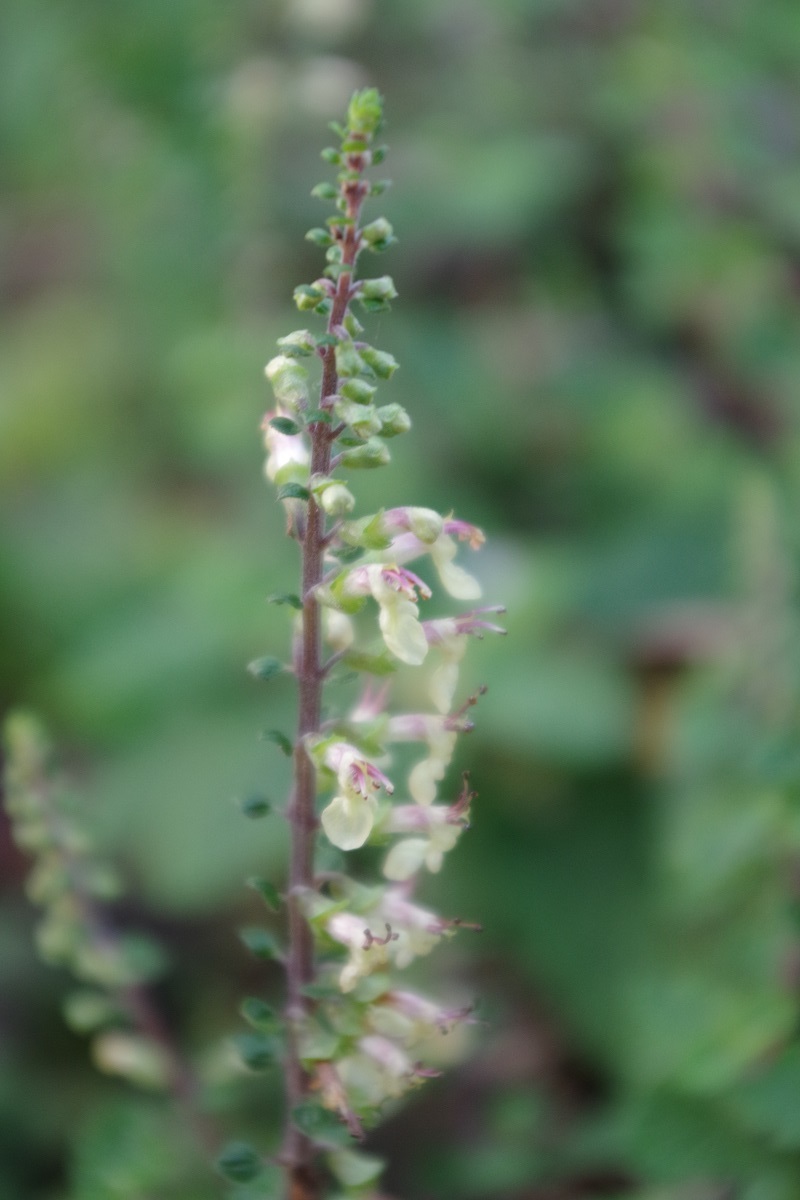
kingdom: Plantae
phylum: Tracheophyta
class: Magnoliopsida
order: Lamiales
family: Lamiaceae
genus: Teucrium
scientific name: Teucrium scorodonia
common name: Woodland germander
